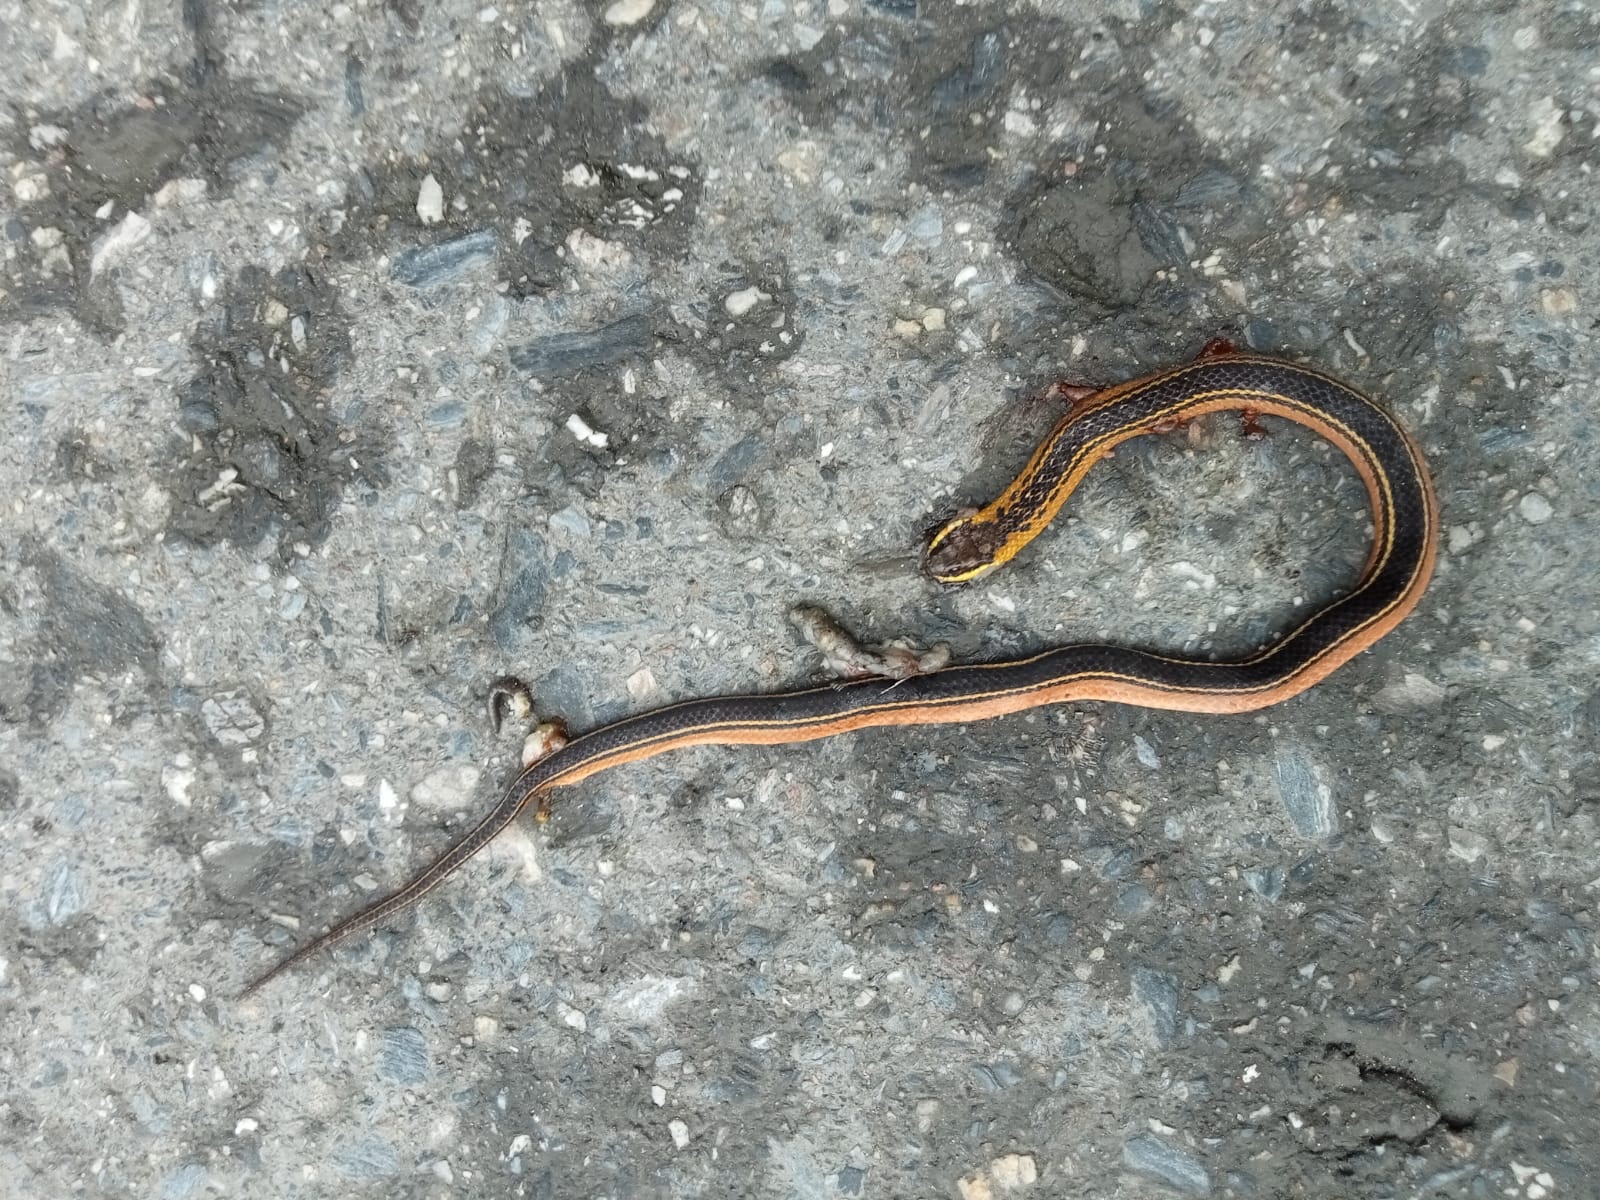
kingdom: Animalia
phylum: Chordata
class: Squamata
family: Colubridae
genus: Erythrolamprus
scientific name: Erythrolamprus melanotus
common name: Shaw's dark ground snake
